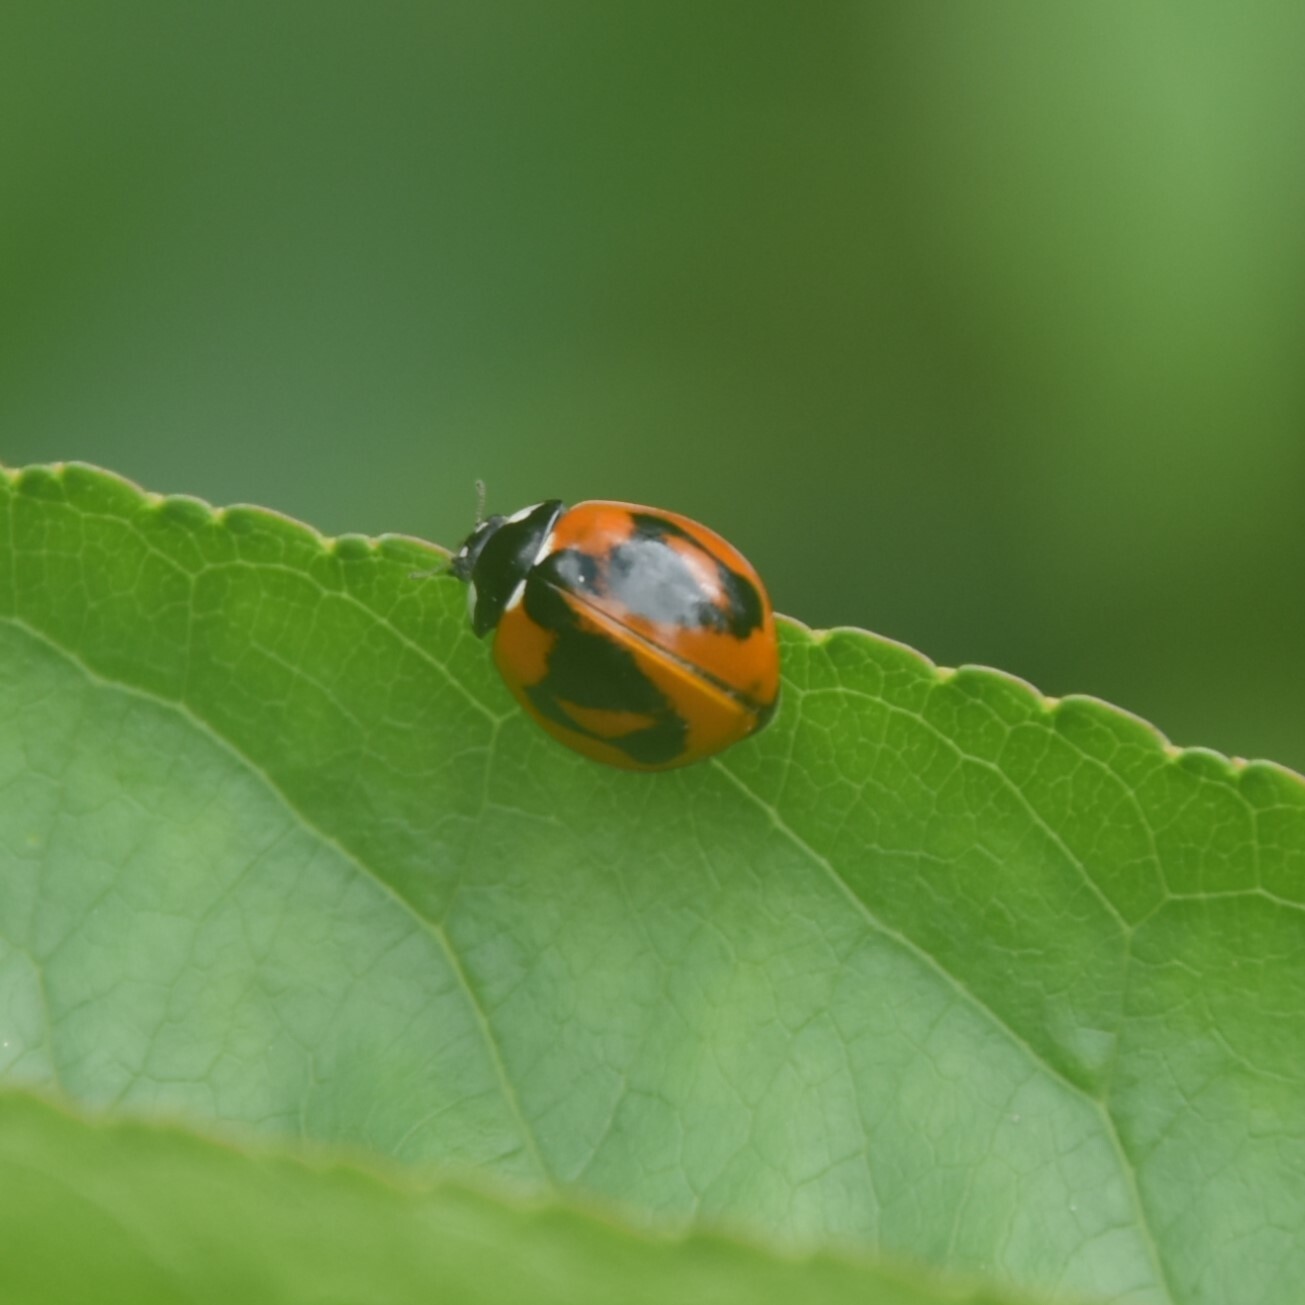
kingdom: Animalia
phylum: Arthropoda
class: Insecta
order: Coleoptera
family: Coccinellidae
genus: Coccinella
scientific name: Coccinella septempunctata
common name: Sevenspotted lady beetle
